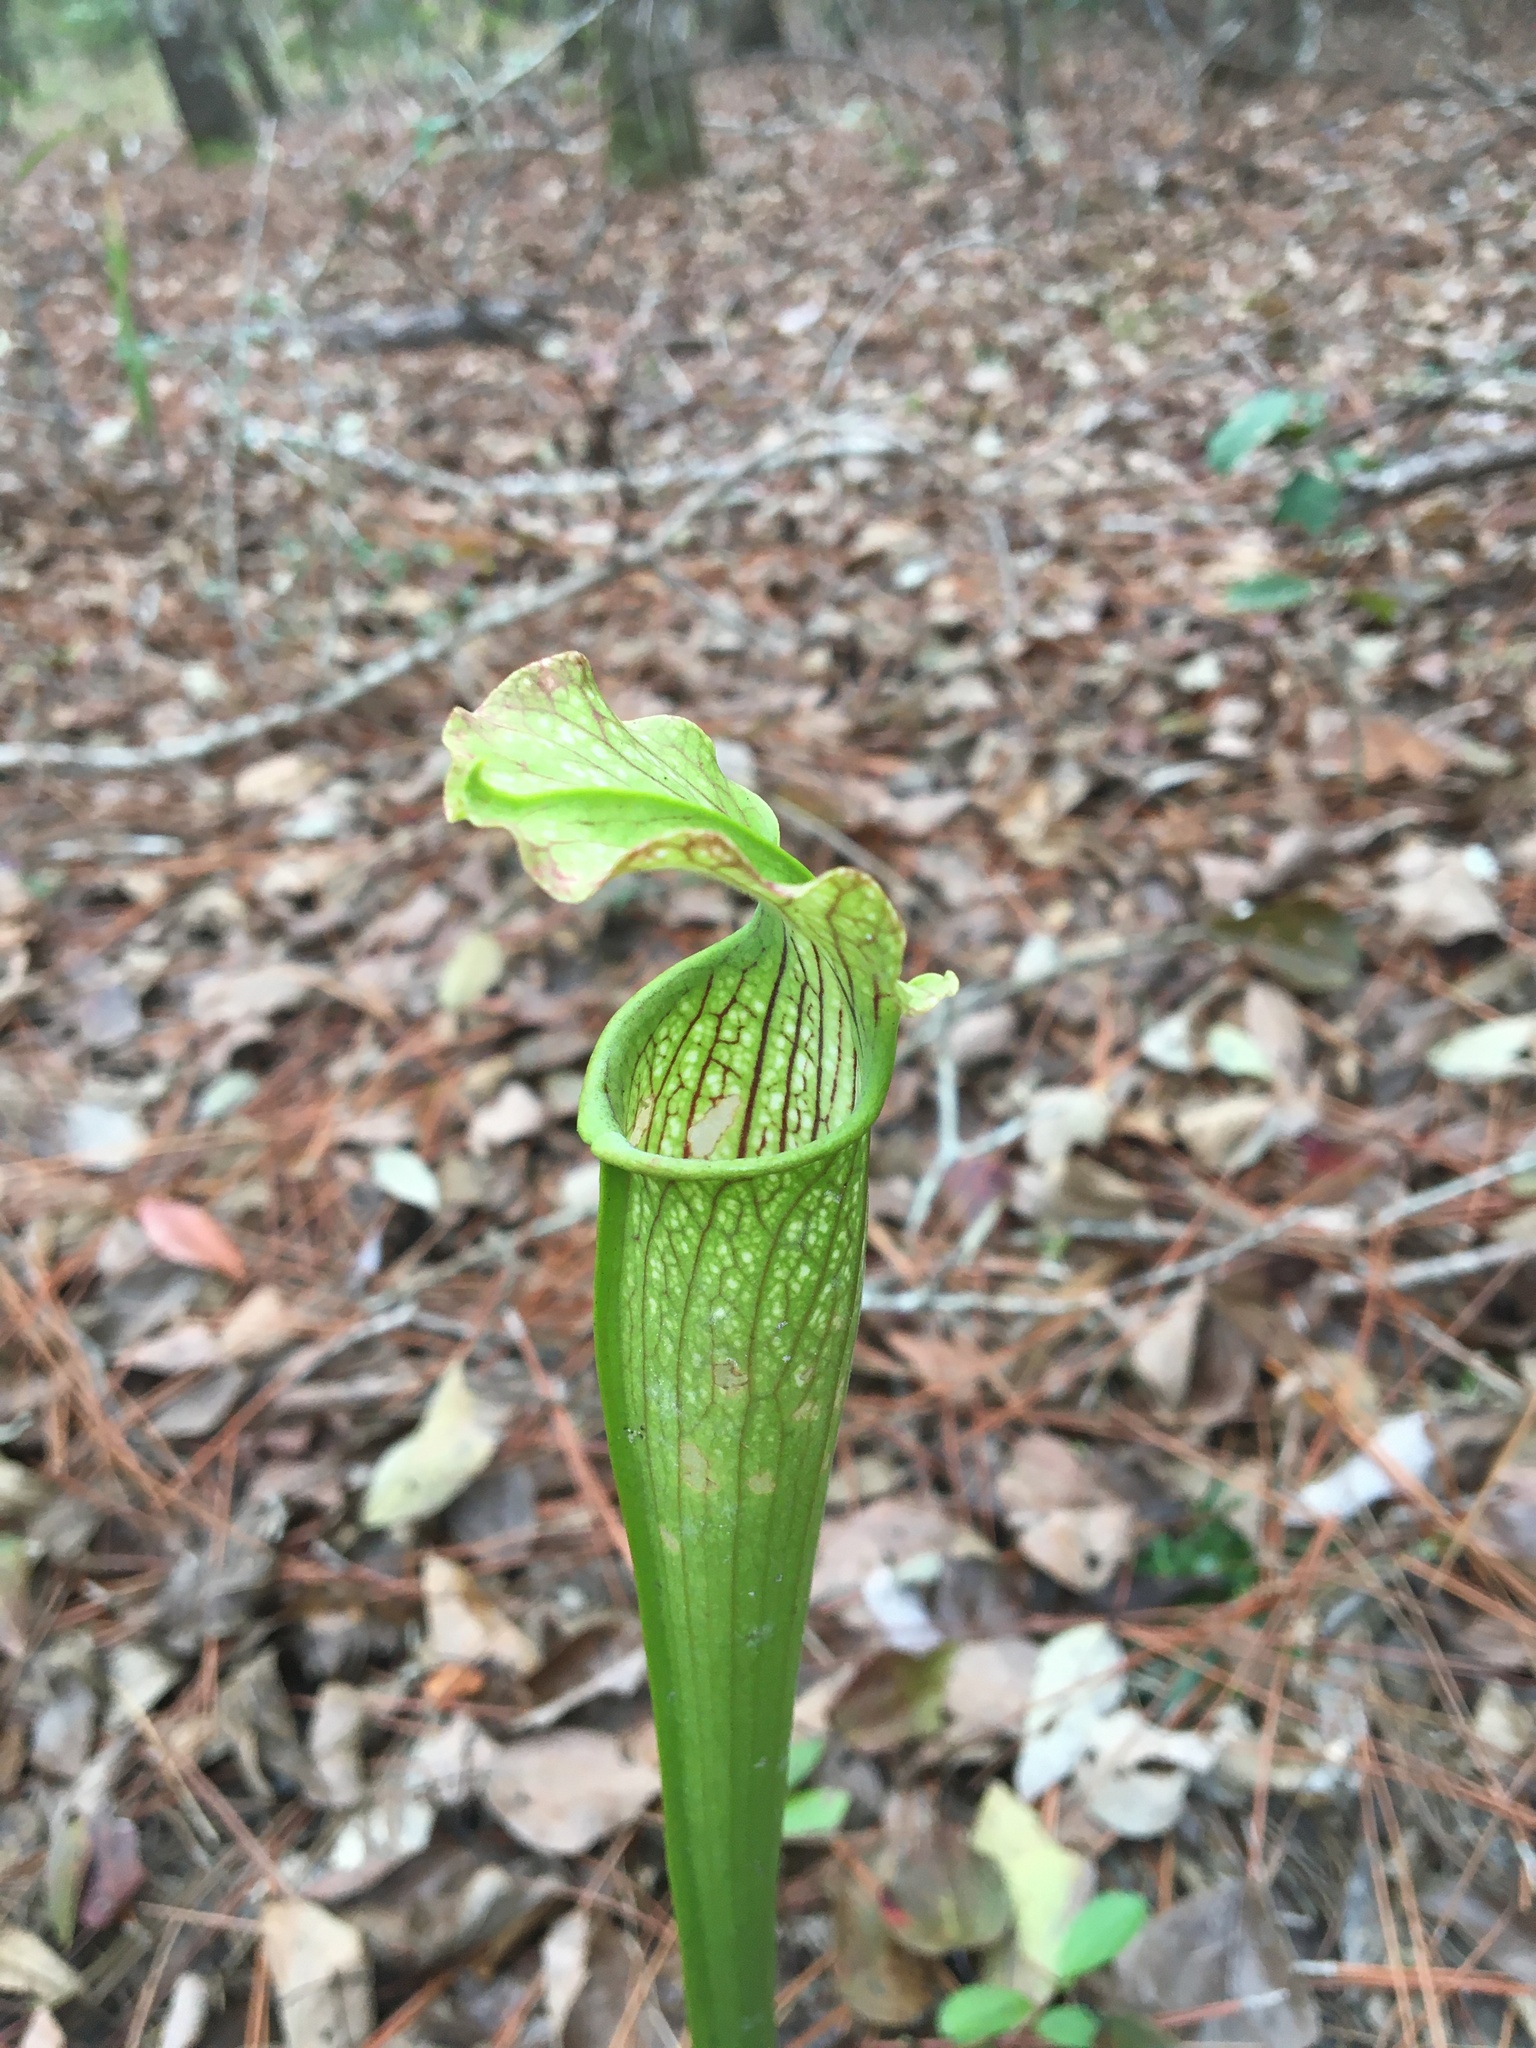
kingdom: Plantae
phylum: Tracheophyta
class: Magnoliopsida
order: Ericales
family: Sarraceniaceae
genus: Sarracenia
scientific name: Sarracenia areolata
